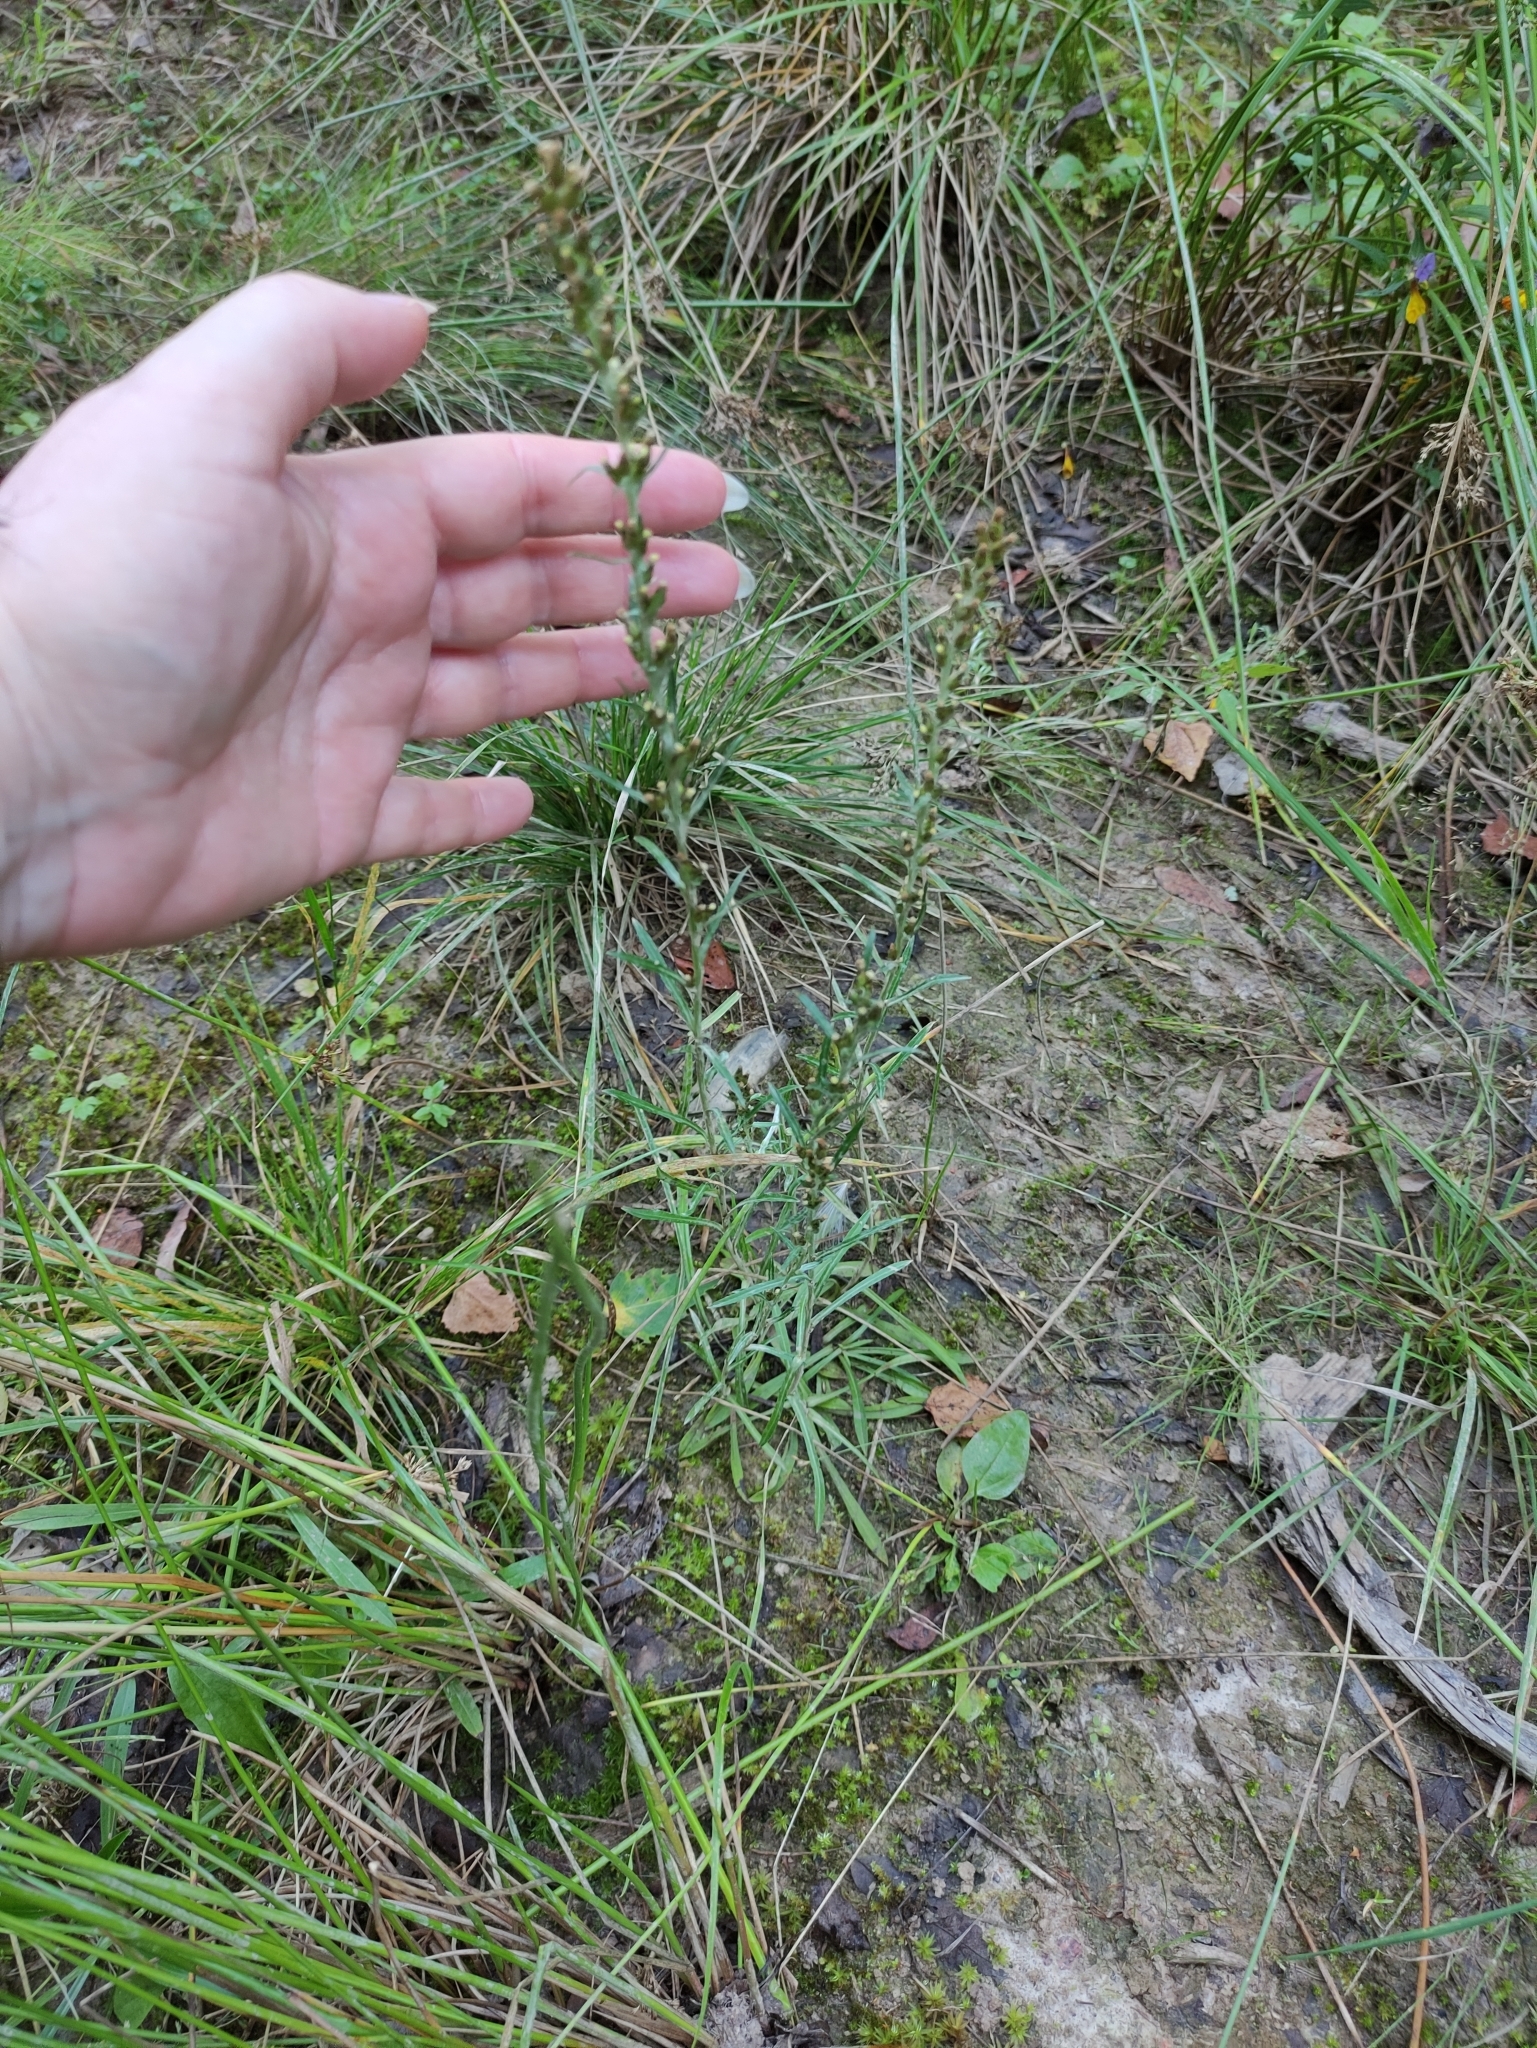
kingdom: Plantae
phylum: Tracheophyta
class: Magnoliopsida
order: Asterales
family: Asteraceae
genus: Omalotheca
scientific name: Omalotheca sylvatica
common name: Heath cudweed
